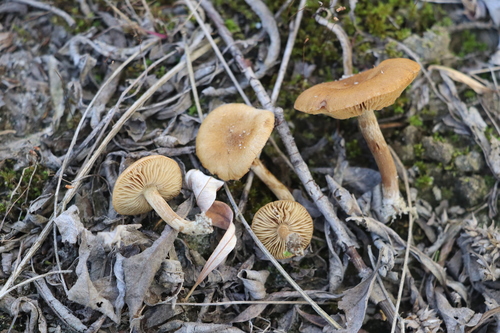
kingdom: Fungi
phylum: Basidiomycota
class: Agaricomycetes
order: Agaricales
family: Inocybaceae
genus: Inocybe
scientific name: Inocybe
